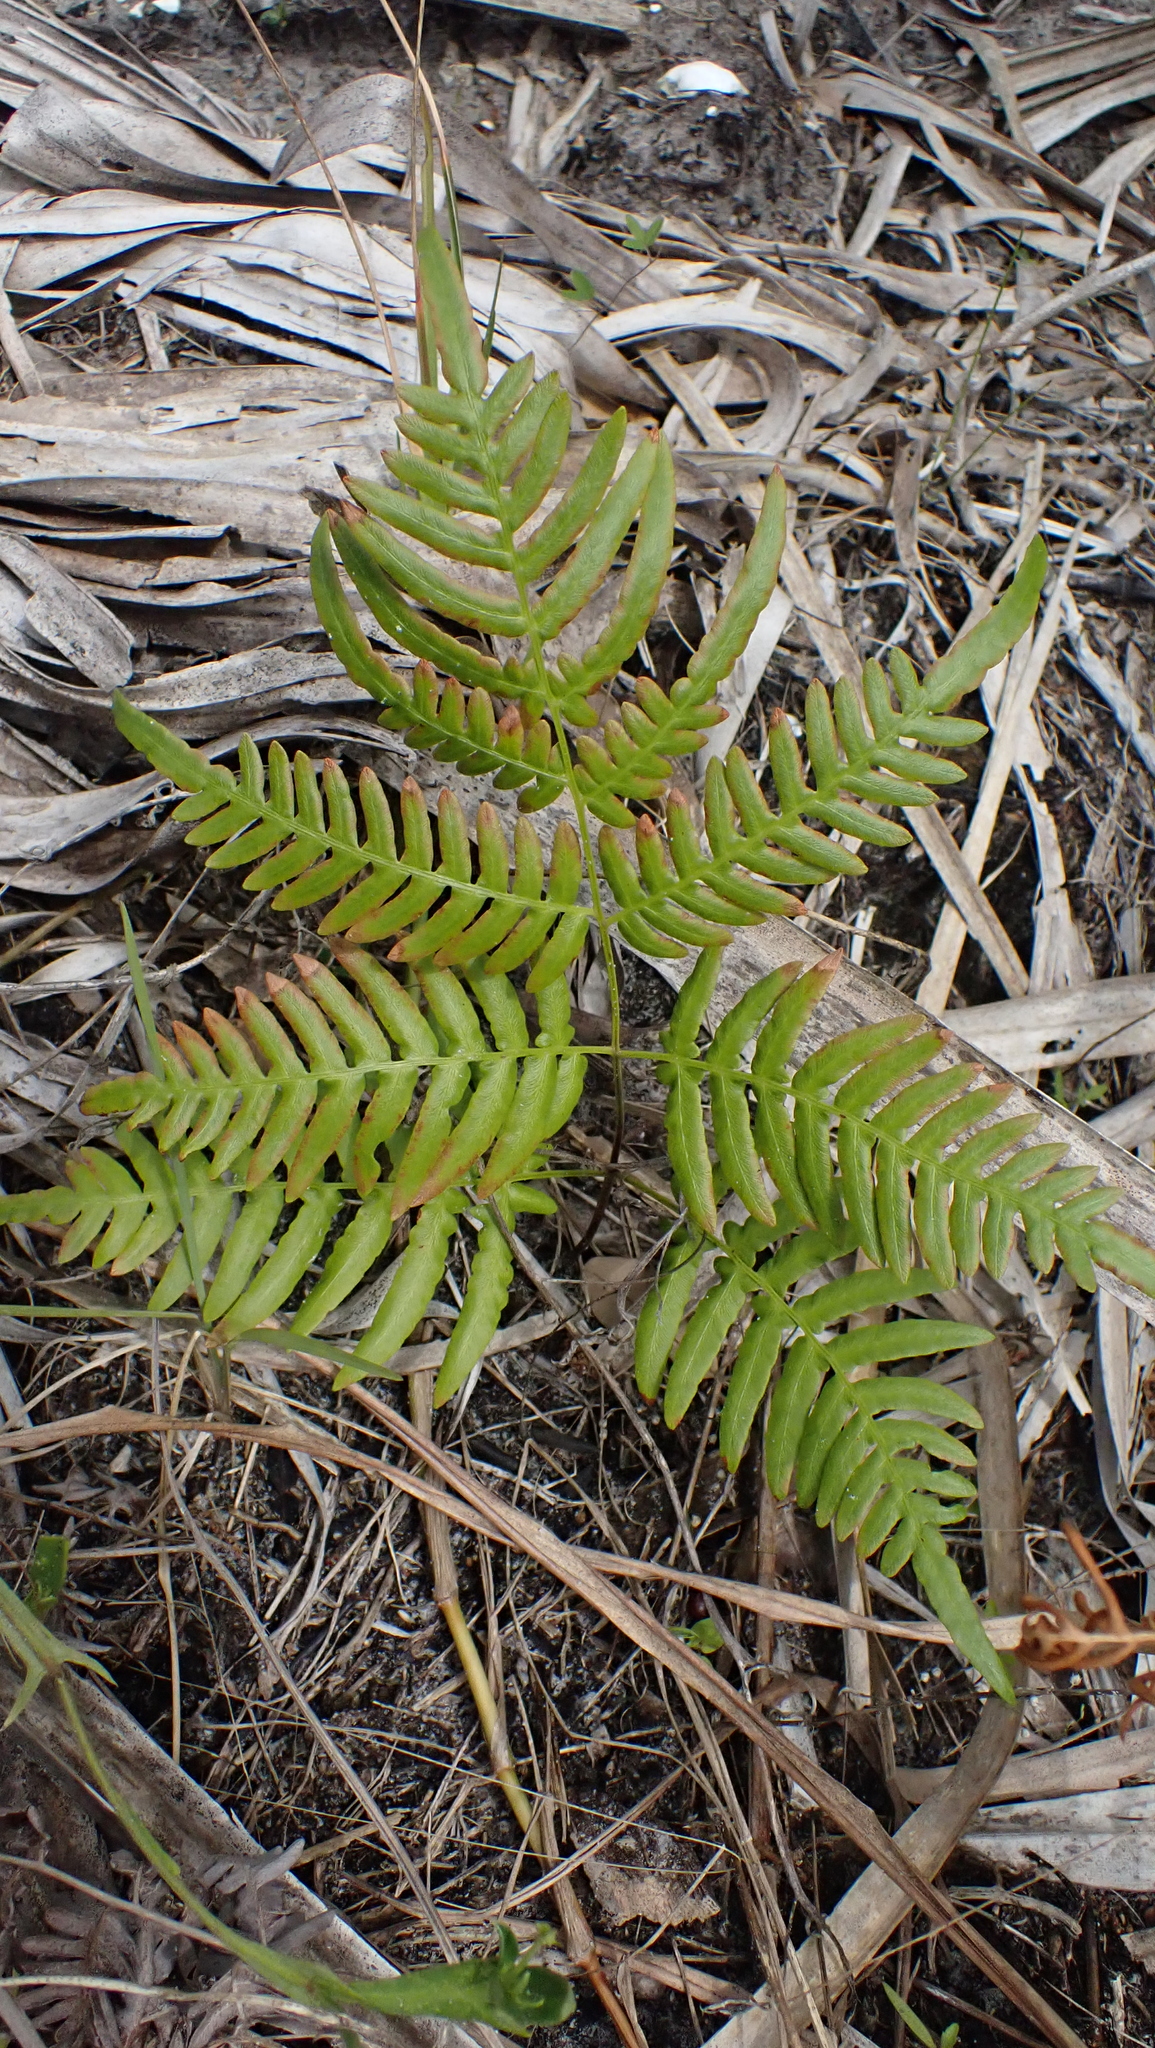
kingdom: Plantae
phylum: Tracheophyta
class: Polypodiopsida
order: Polypodiales
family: Dennstaedtiaceae
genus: Pteridium
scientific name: Pteridium
